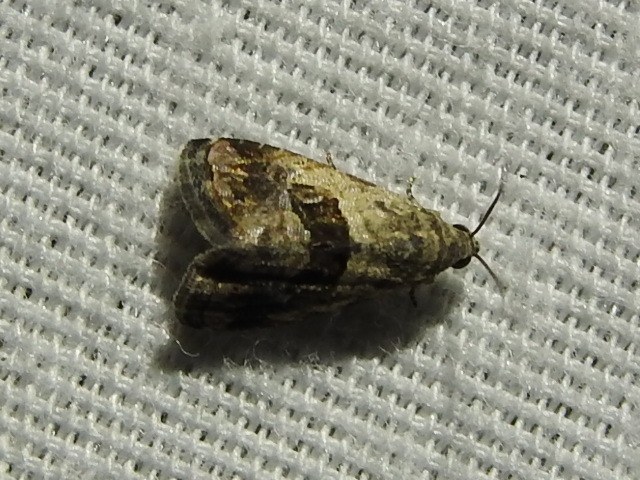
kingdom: Animalia
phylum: Arthropoda
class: Insecta
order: Lepidoptera
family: Noctuidae
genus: Tripudia
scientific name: Tripudia quadrifera
